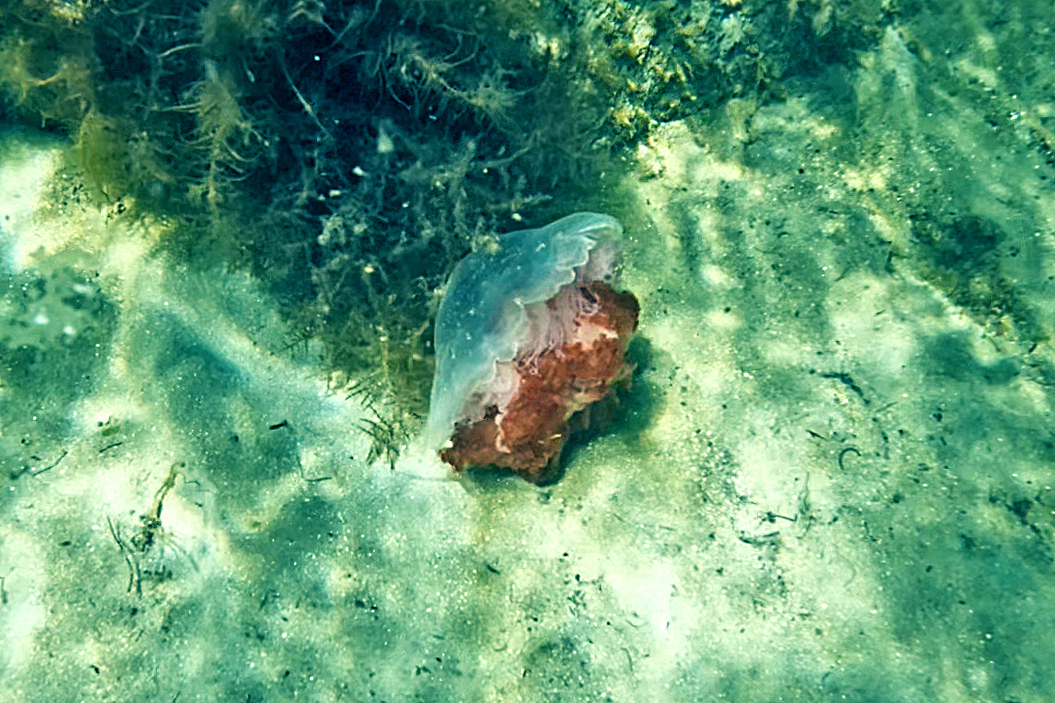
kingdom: Animalia
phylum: Cnidaria
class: Scyphozoa
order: Semaeostomeae
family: Cyaneidae
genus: Cyanea
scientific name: Cyanea annaskala
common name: Lion’s mane
